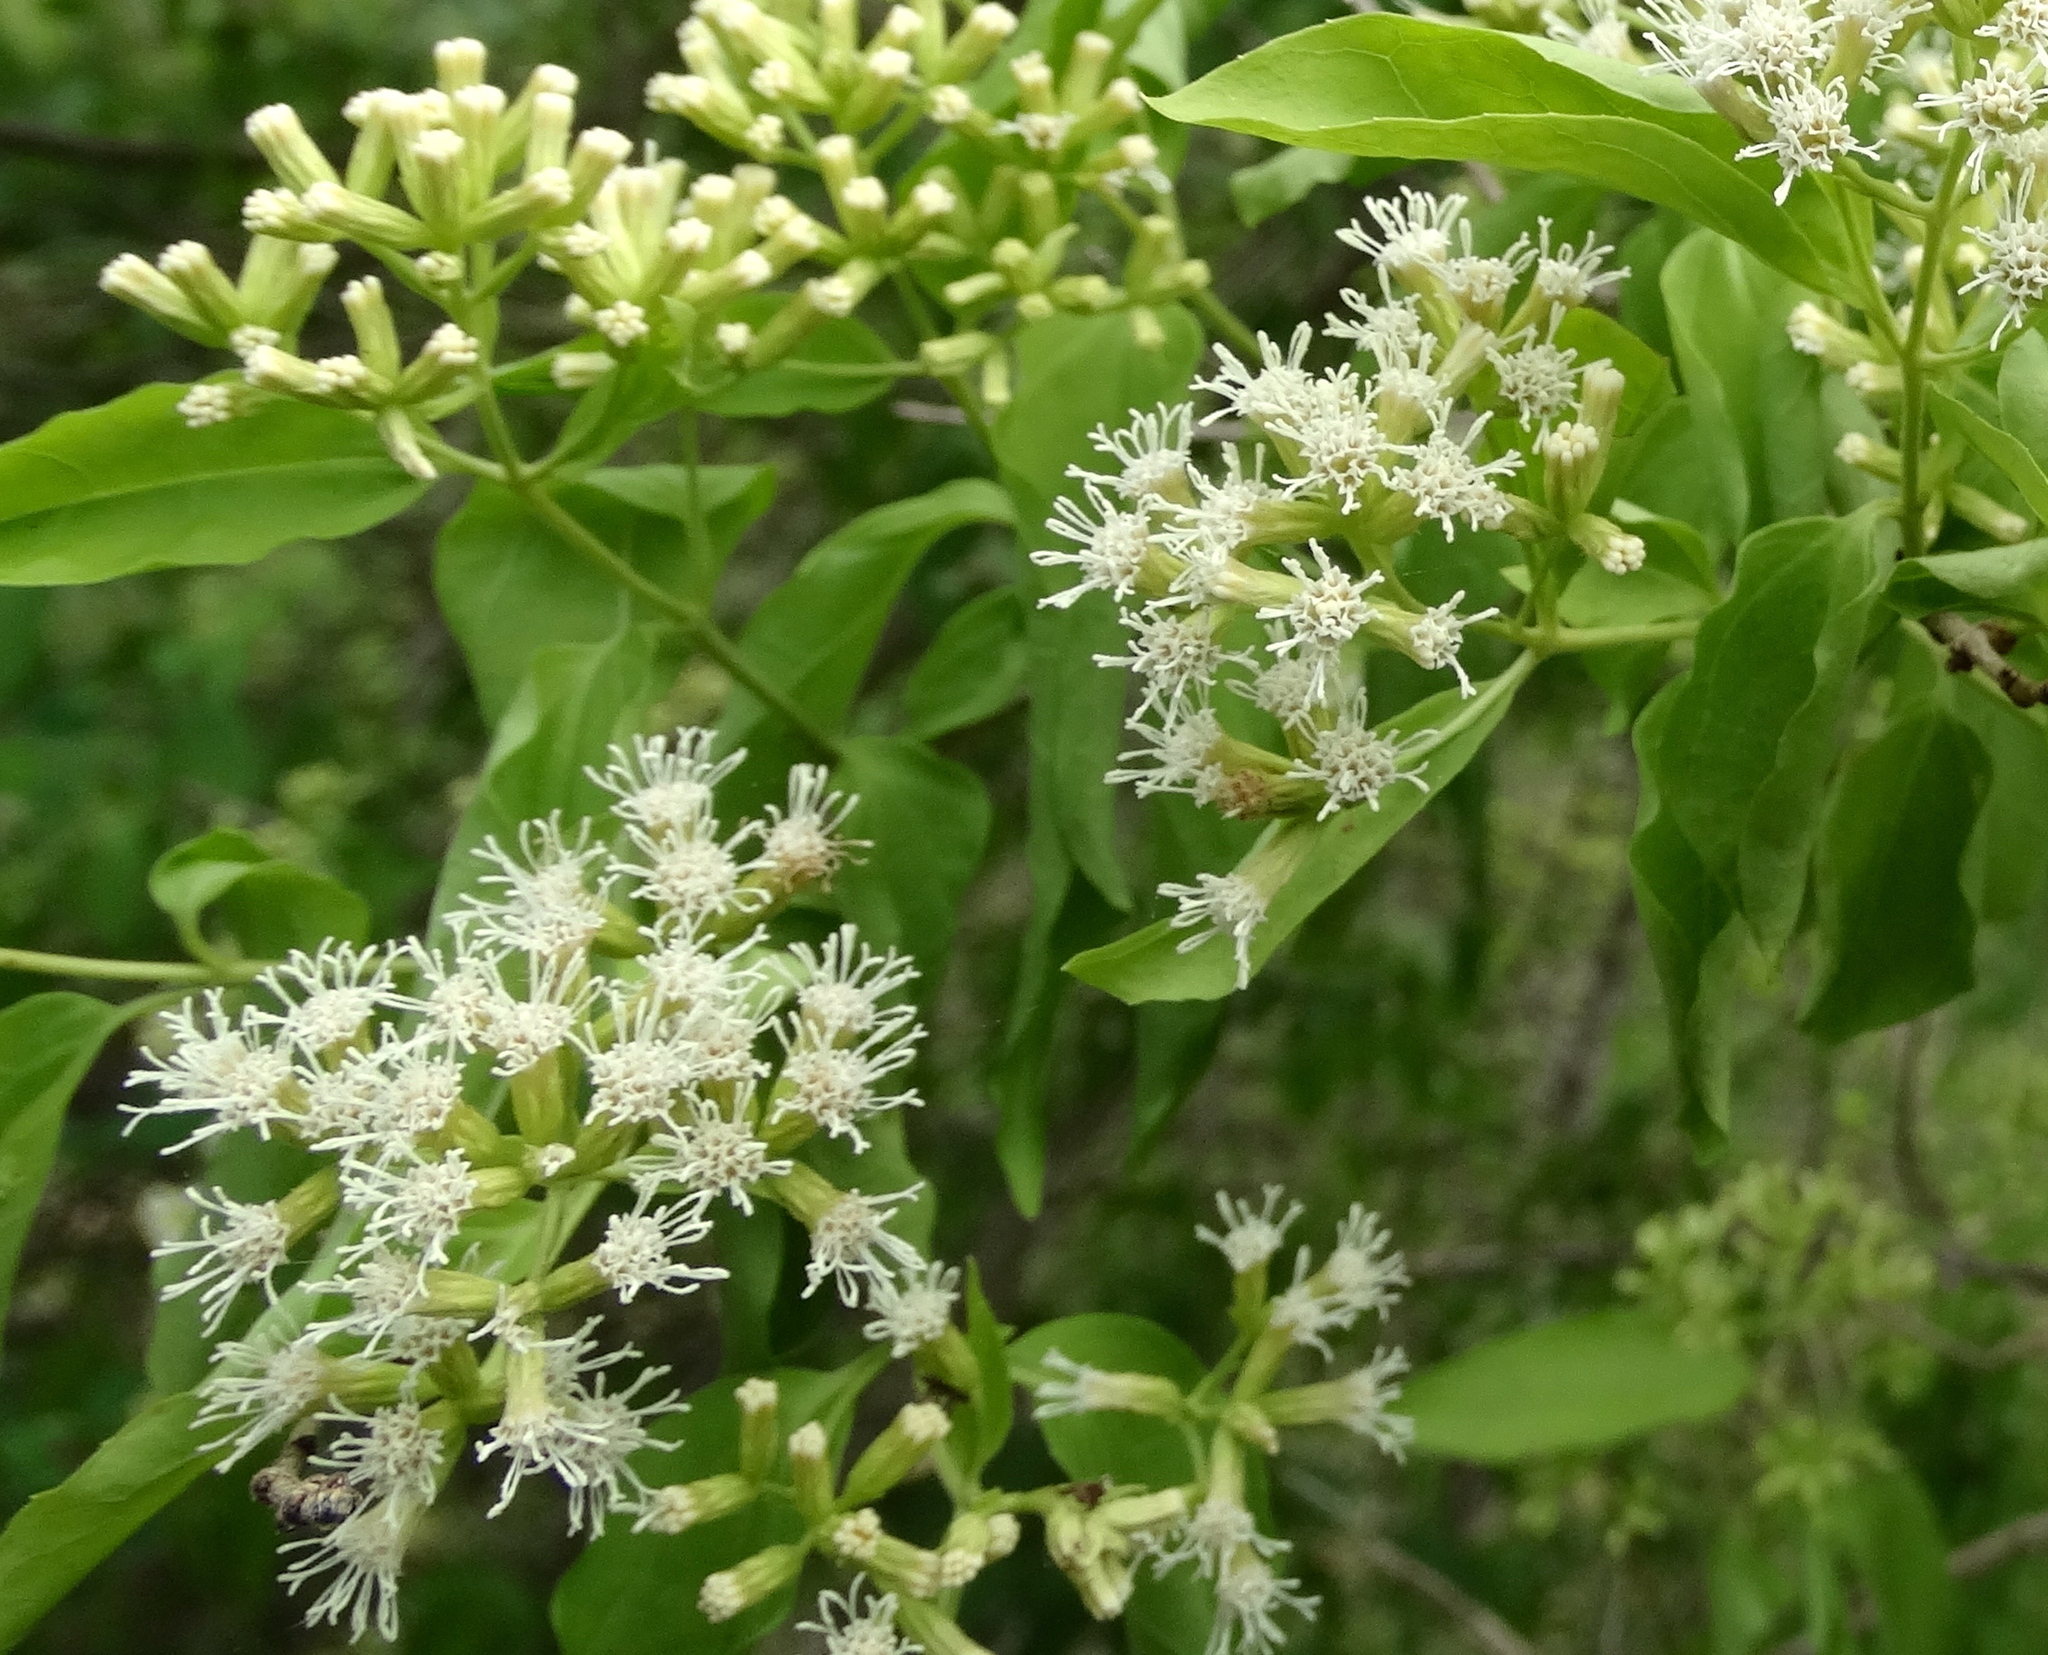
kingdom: Plantae
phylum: Tracheophyta
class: Magnoliopsida
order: Asterales
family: Asteraceae
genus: Koanophyllon
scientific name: Koanophyllon albicaule
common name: Old women's walking stick
